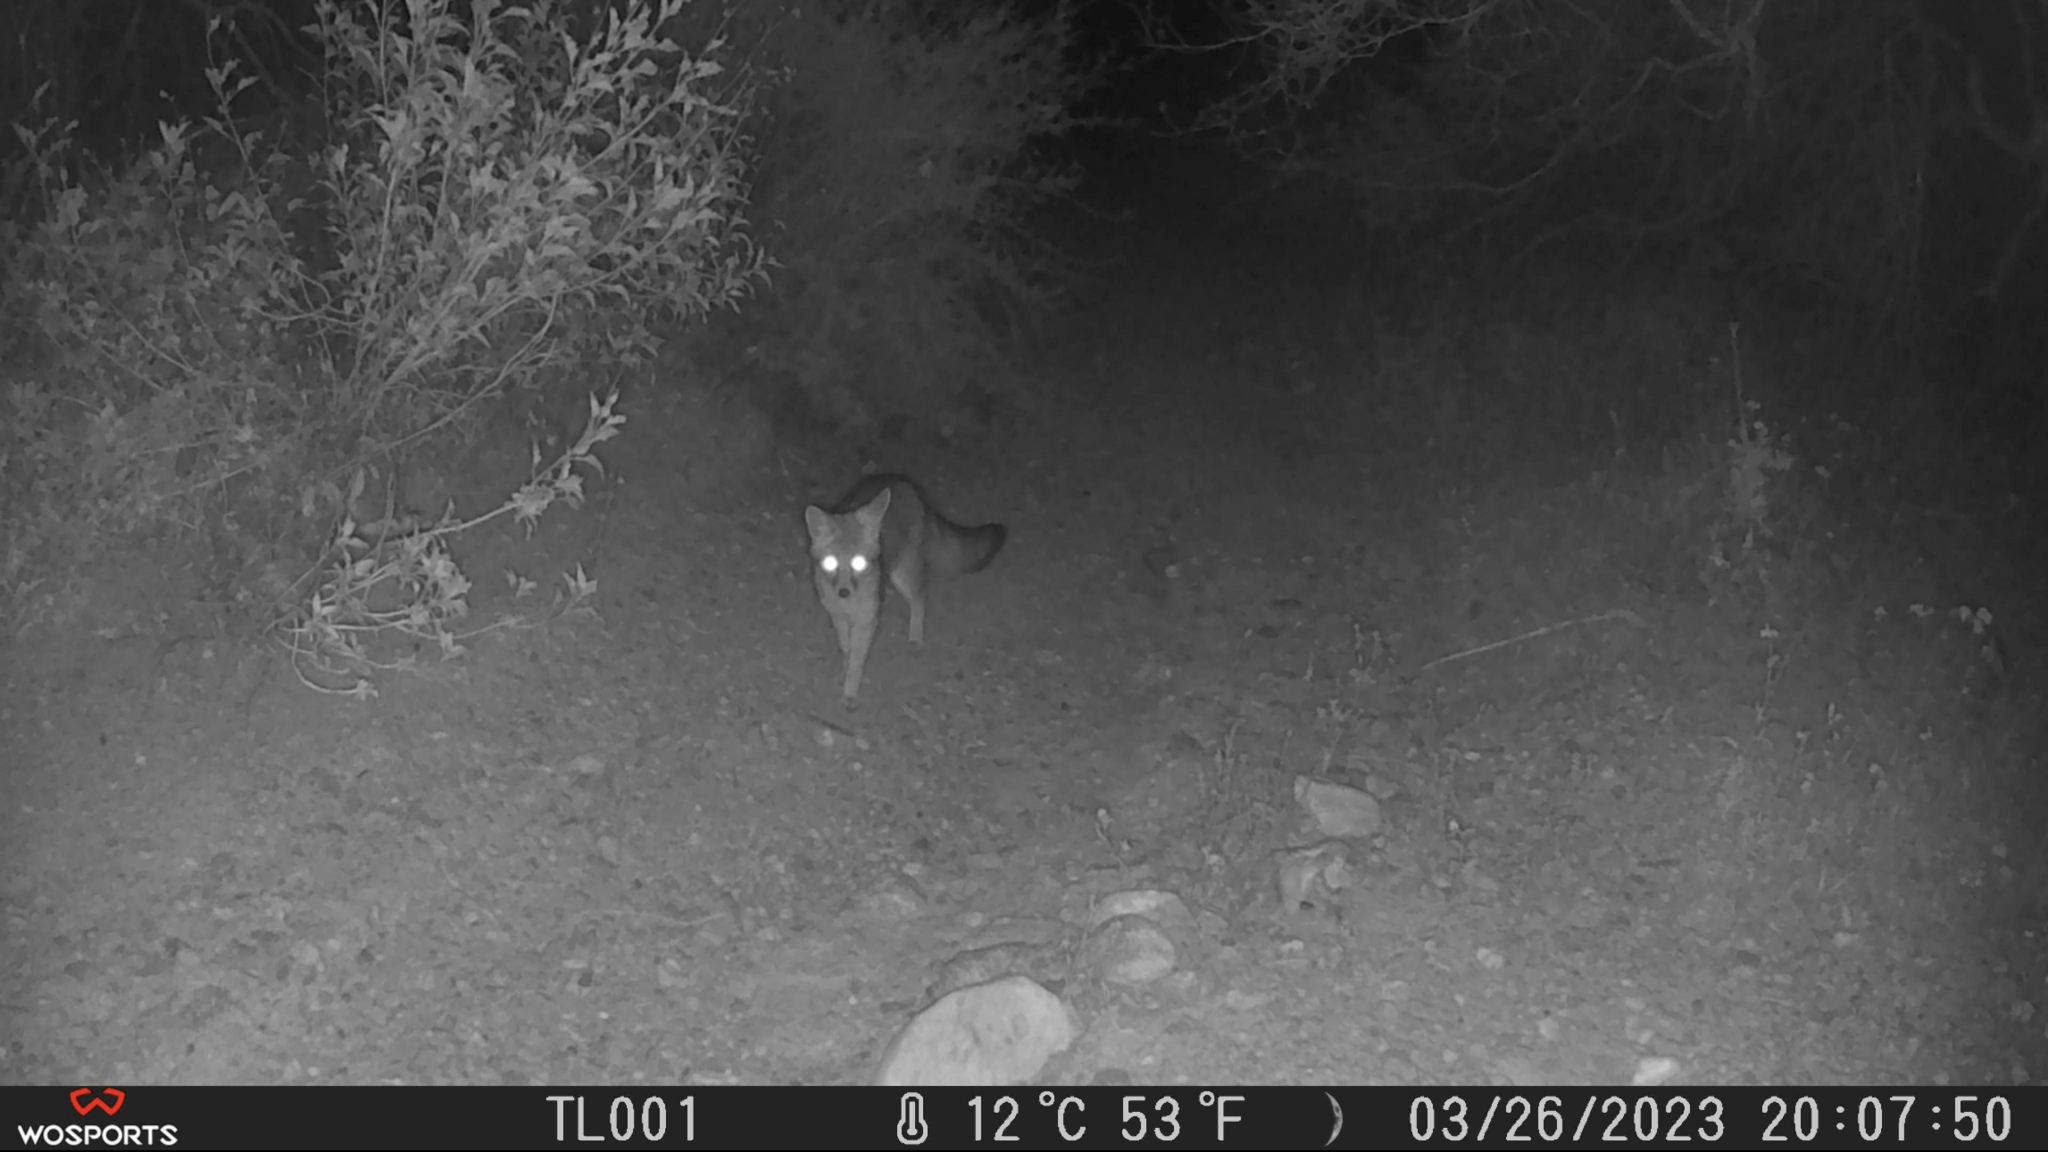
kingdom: Animalia
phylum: Chordata
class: Mammalia
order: Carnivora
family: Canidae
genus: Urocyon
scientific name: Urocyon cinereoargenteus
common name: Gray fox
